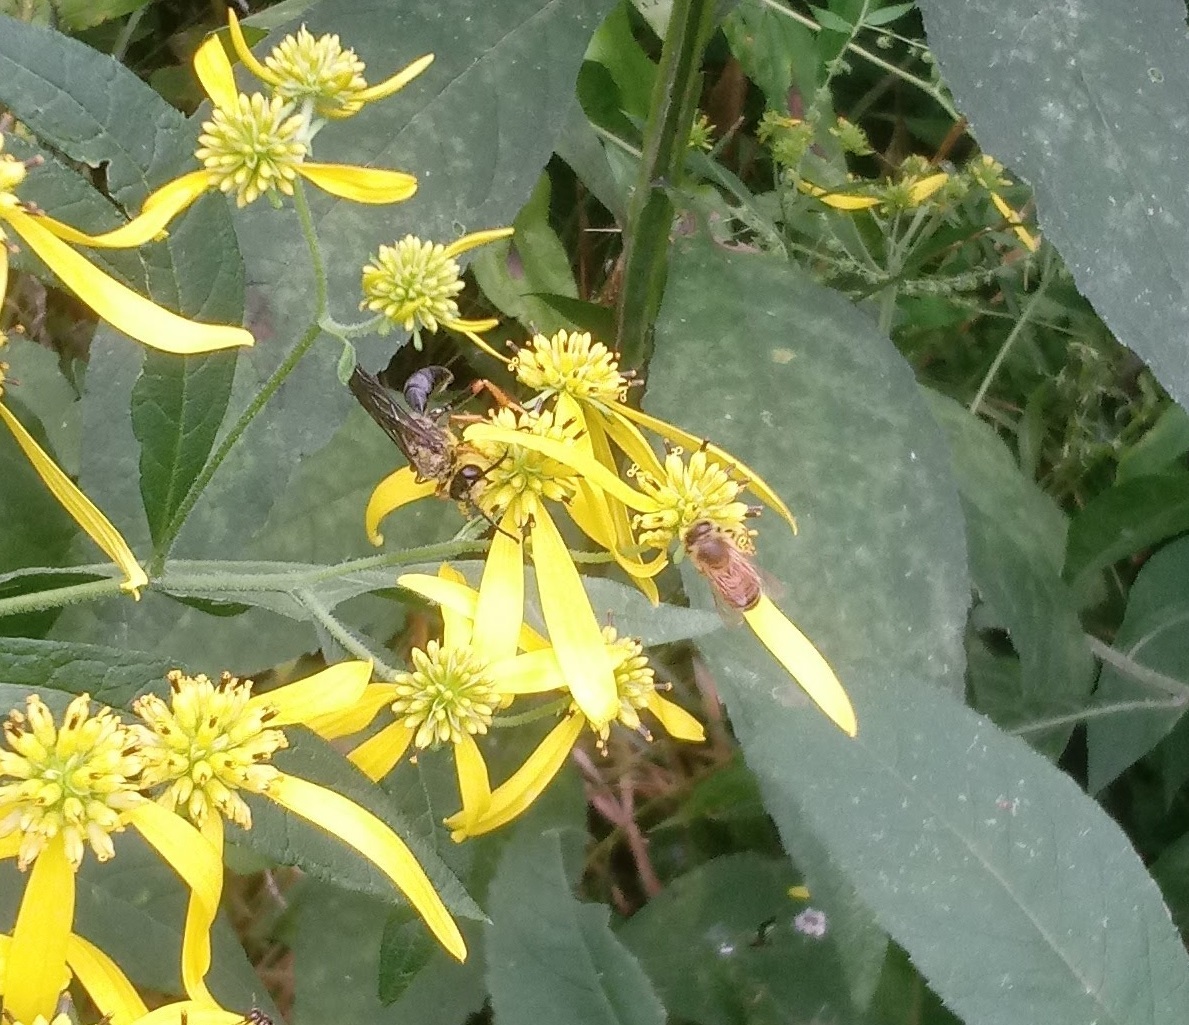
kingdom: Animalia
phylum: Arthropoda
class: Insecta
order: Hymenoptera
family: Sphecidae
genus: Sphex
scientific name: Sphex nudus
